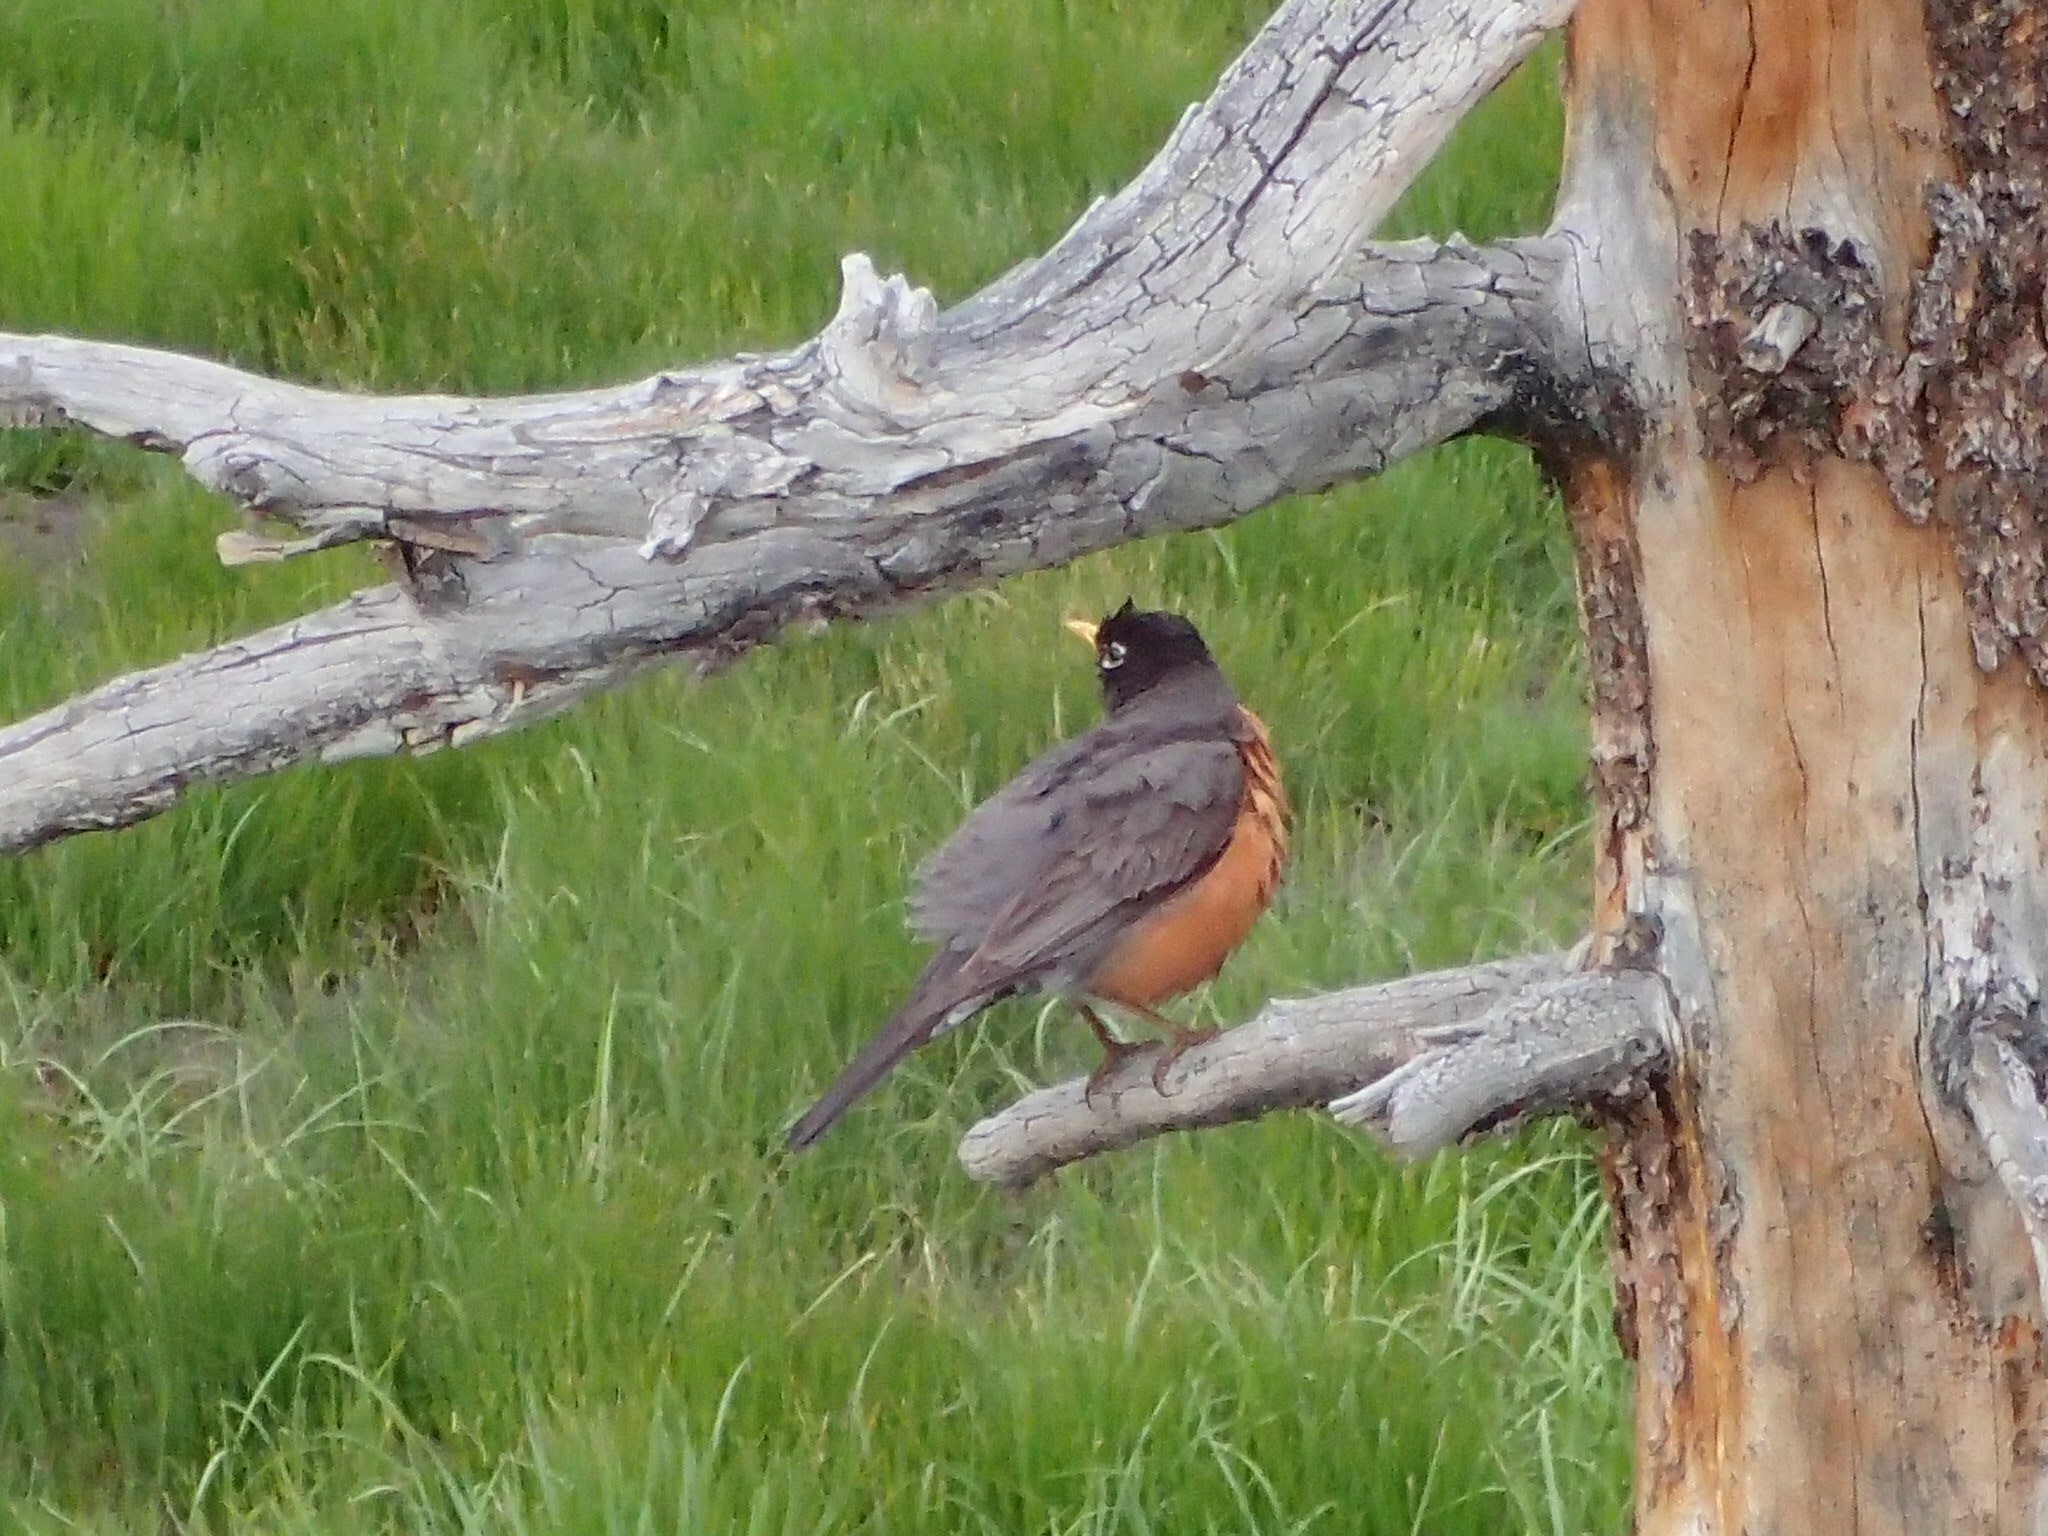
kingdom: Animalia
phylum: Chordata
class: Aves
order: Passeriformes
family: Turdidae
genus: Turdus
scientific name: Turdus migratorius
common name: American robin
